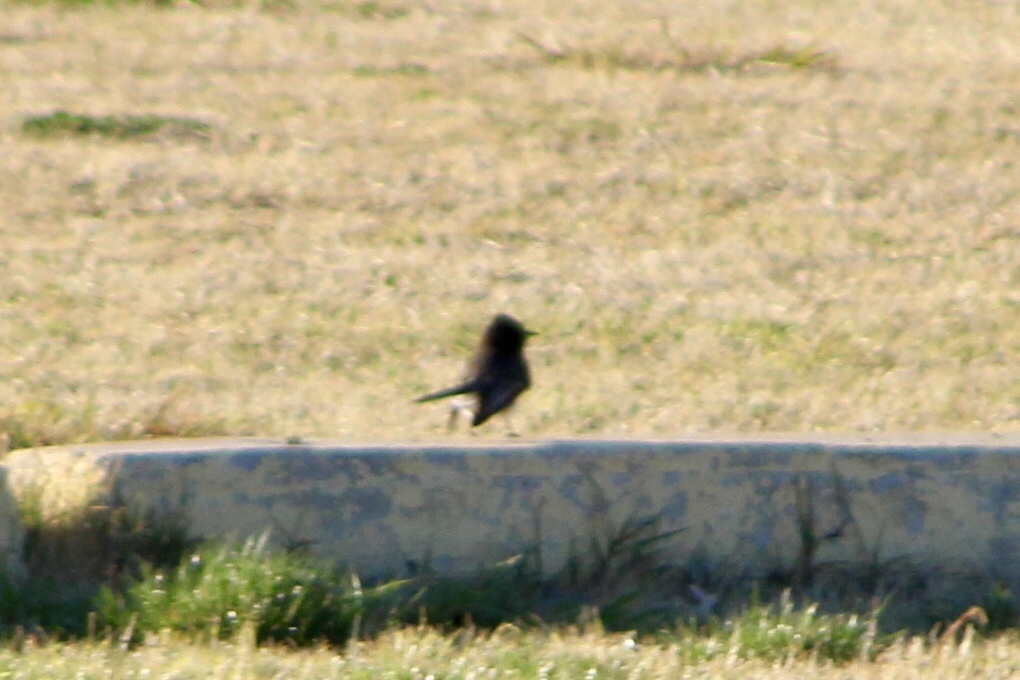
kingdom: Animalia
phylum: Chordata
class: Aves
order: Passeriformes
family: Tyrannidae
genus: Sayornis
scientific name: Sayornis nigricans
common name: Black phoebe
